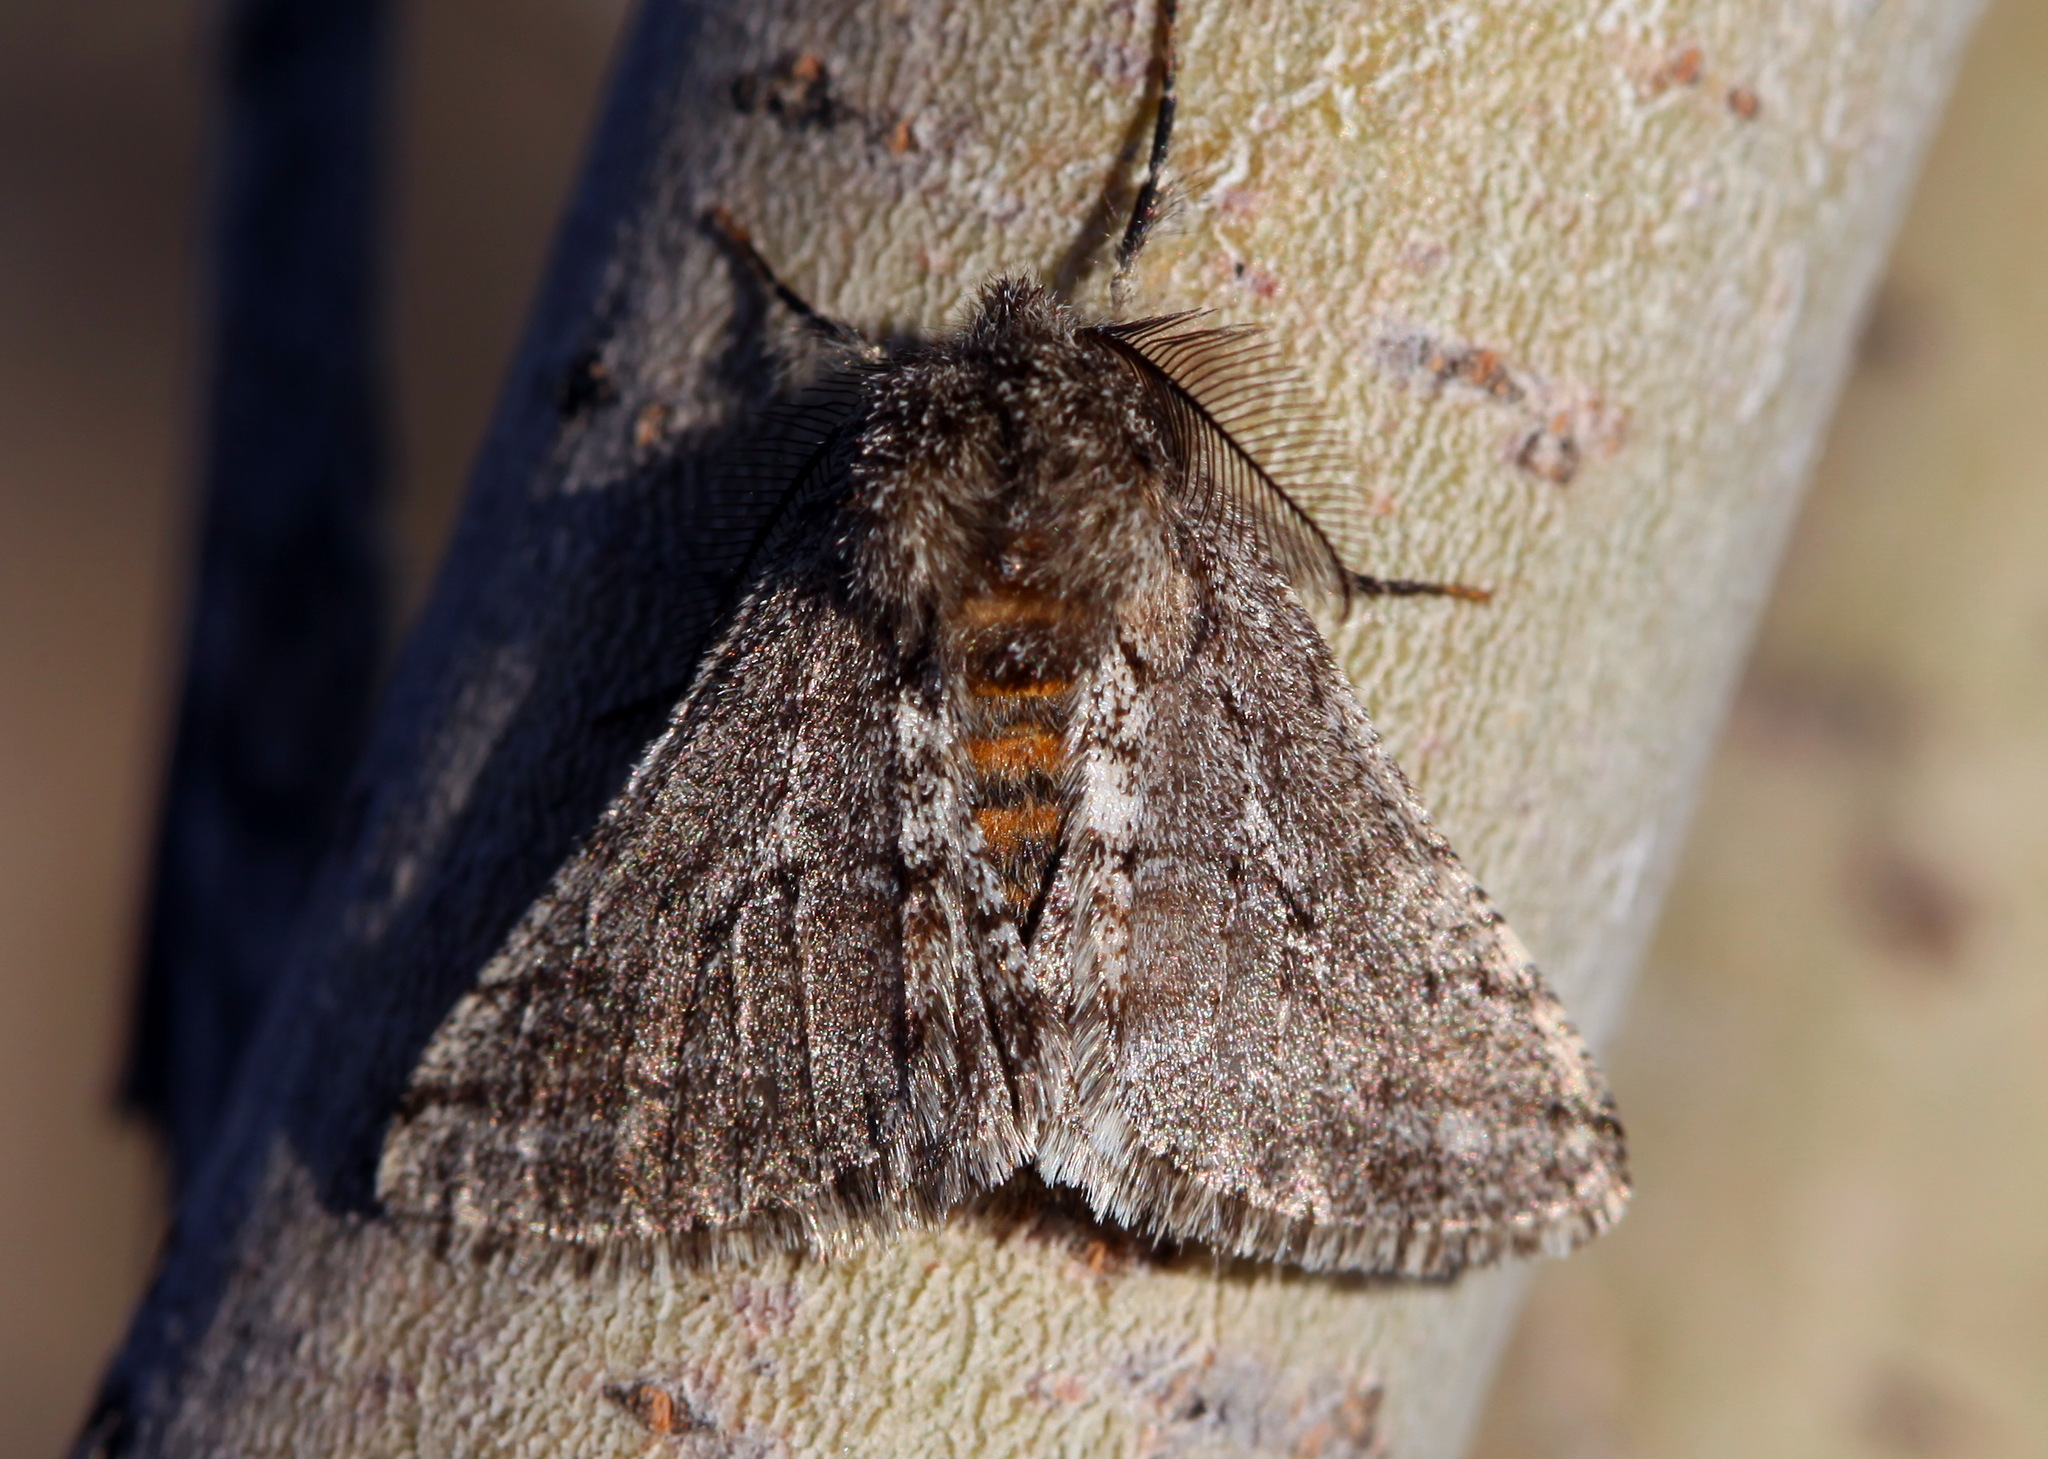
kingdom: Animalia
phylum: Arthropoda
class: Insecta
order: Lepidoptera
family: Geometridae
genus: Lycia
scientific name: Lycia degtjarevae
